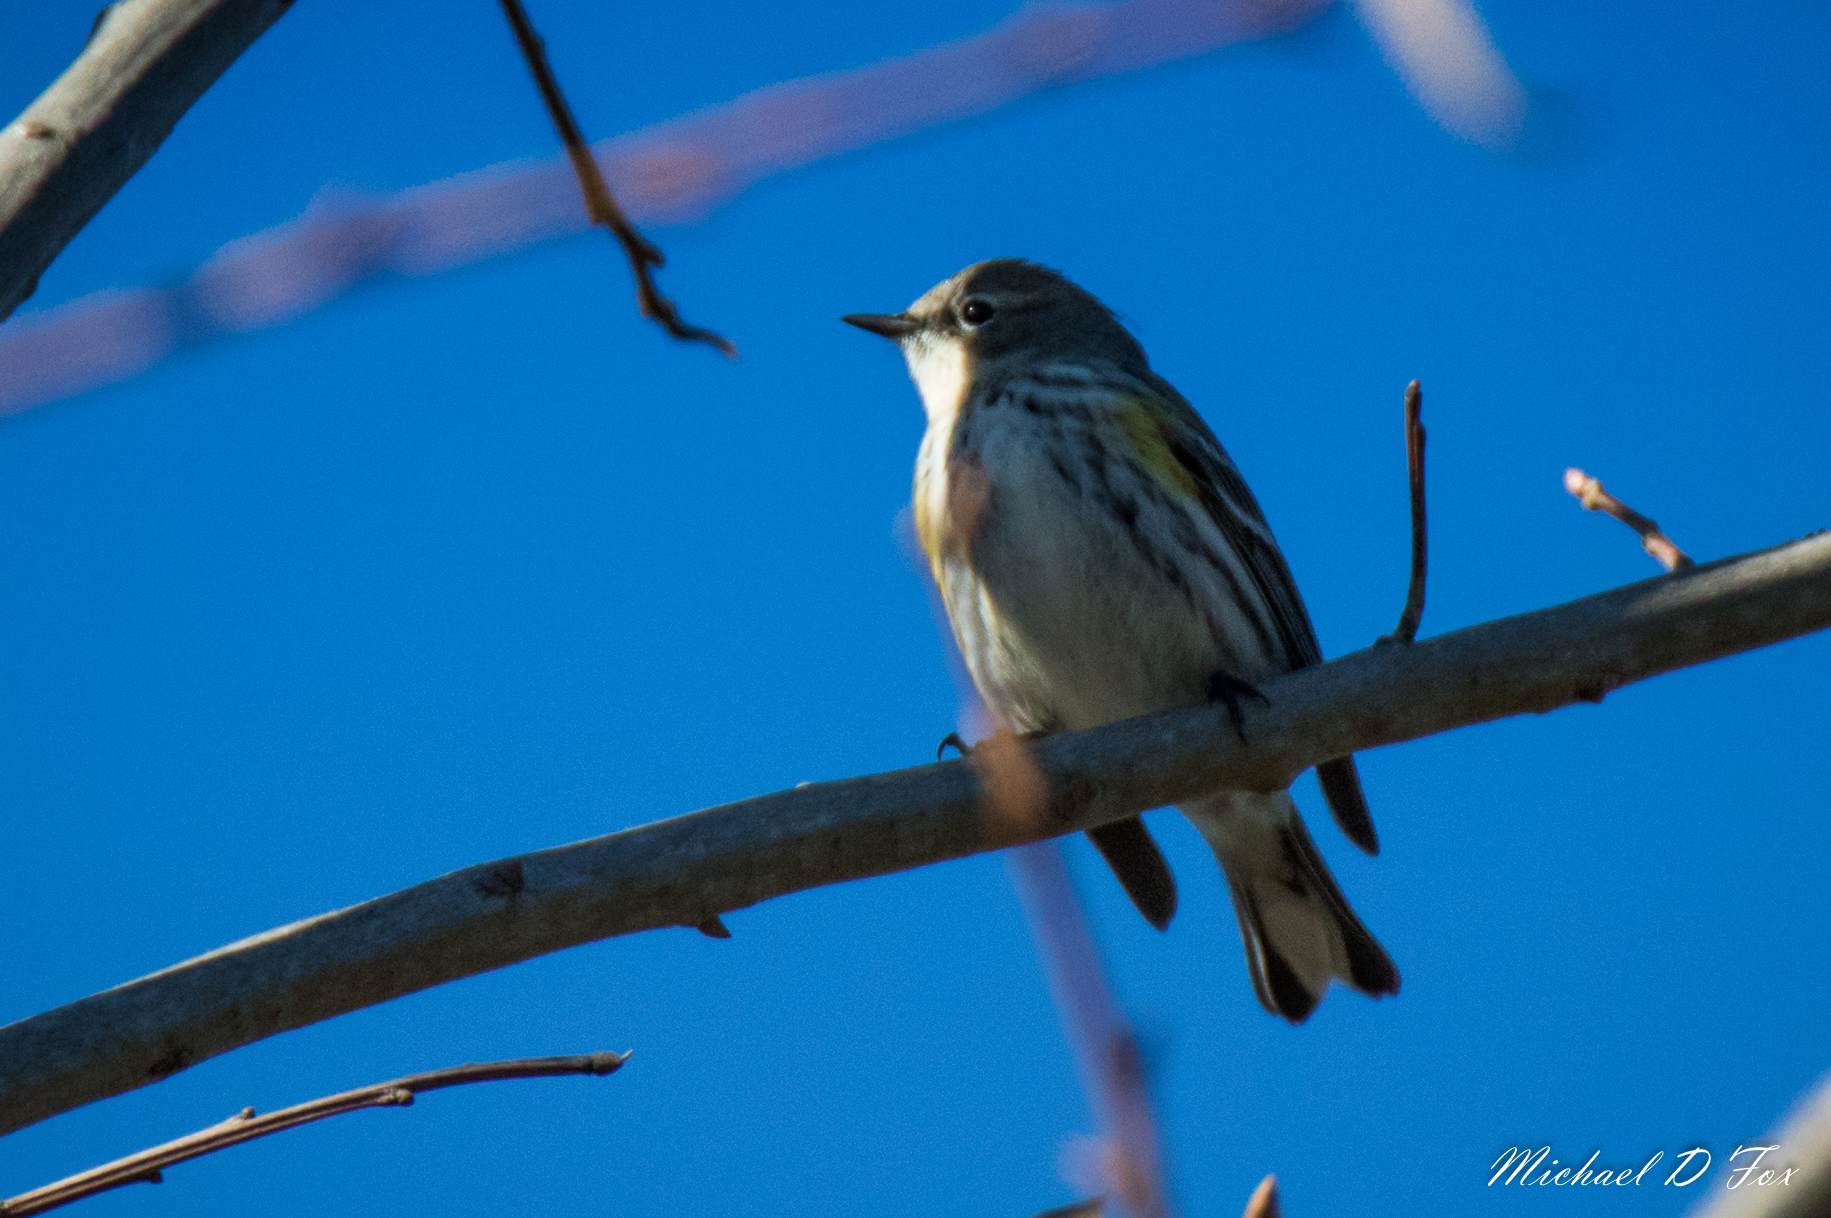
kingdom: Animalia
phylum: Chordata
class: Aves
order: Passeriformes
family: Parulidae
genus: Setophaga
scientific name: Setophaga coronata
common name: Myrtle warbler
